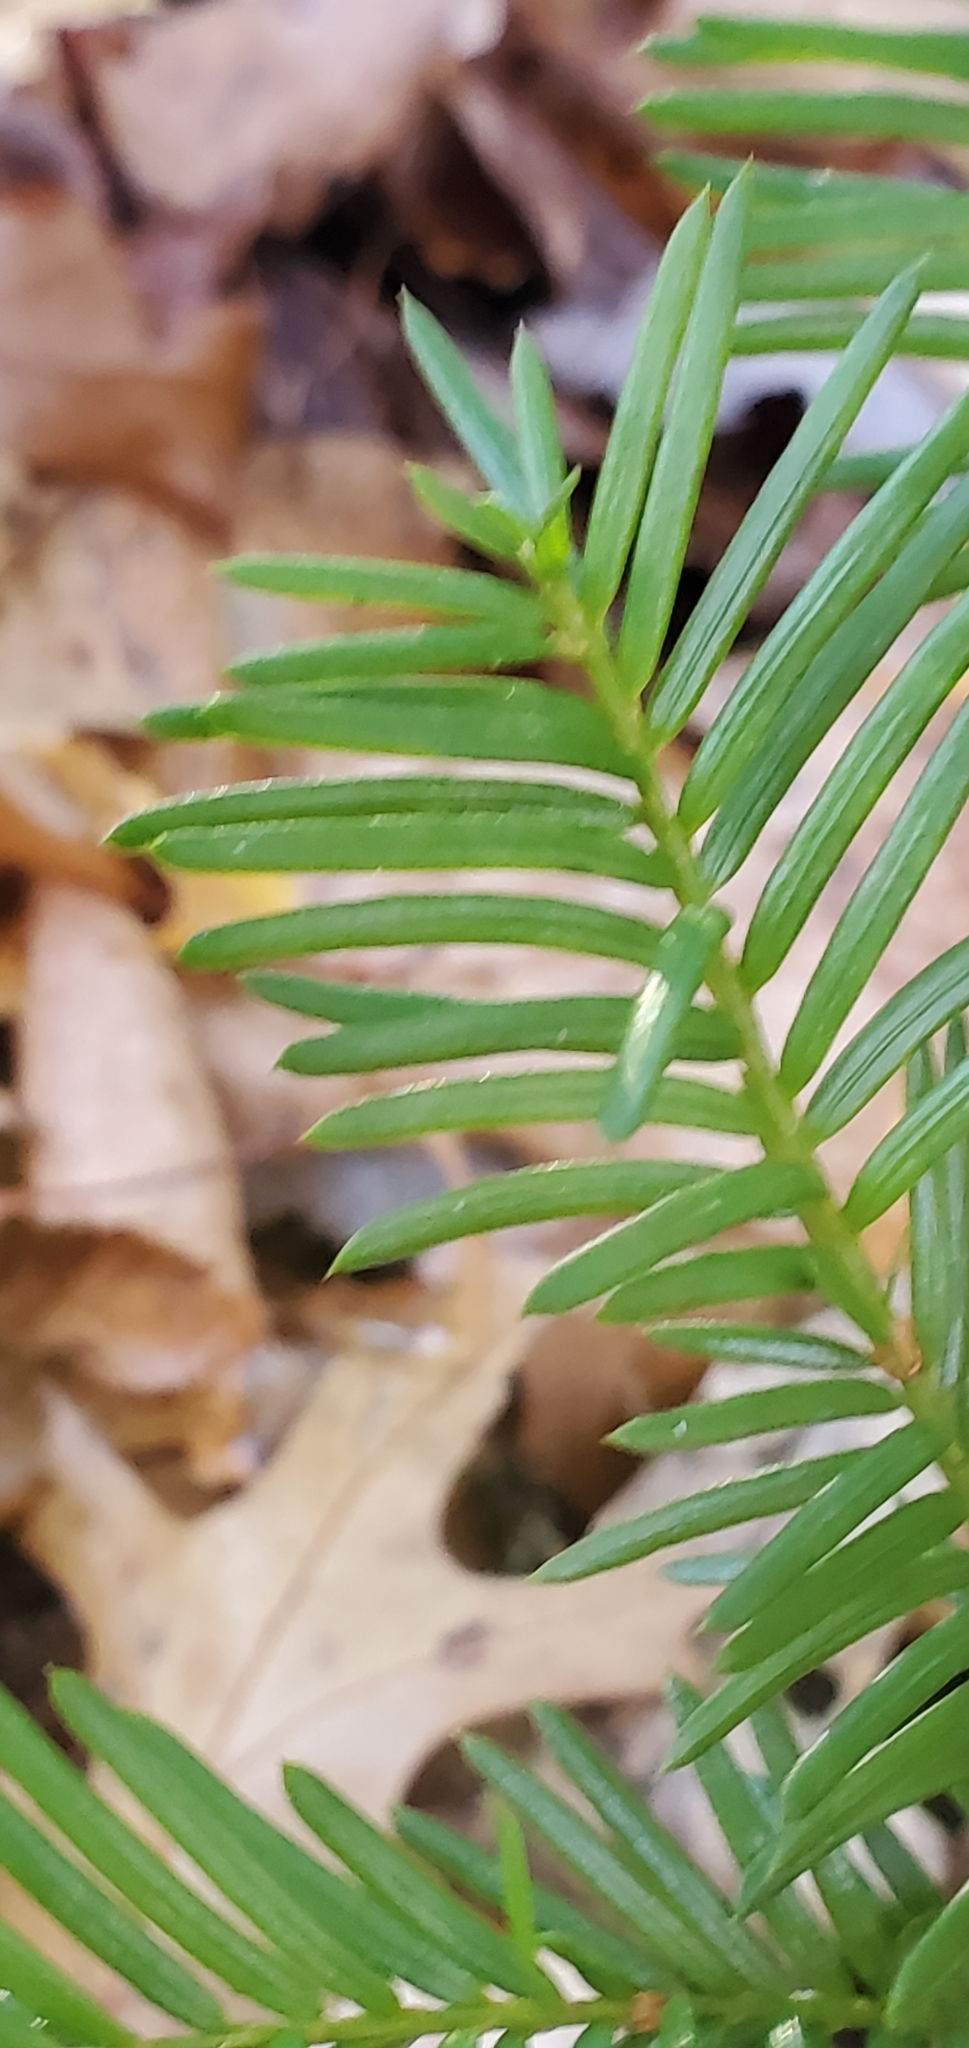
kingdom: Plantae
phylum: Tracheophyta
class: Pinopsida
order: Pinales
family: Taxaceae
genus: Taxus
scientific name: Taxus canadensis
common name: American yew
